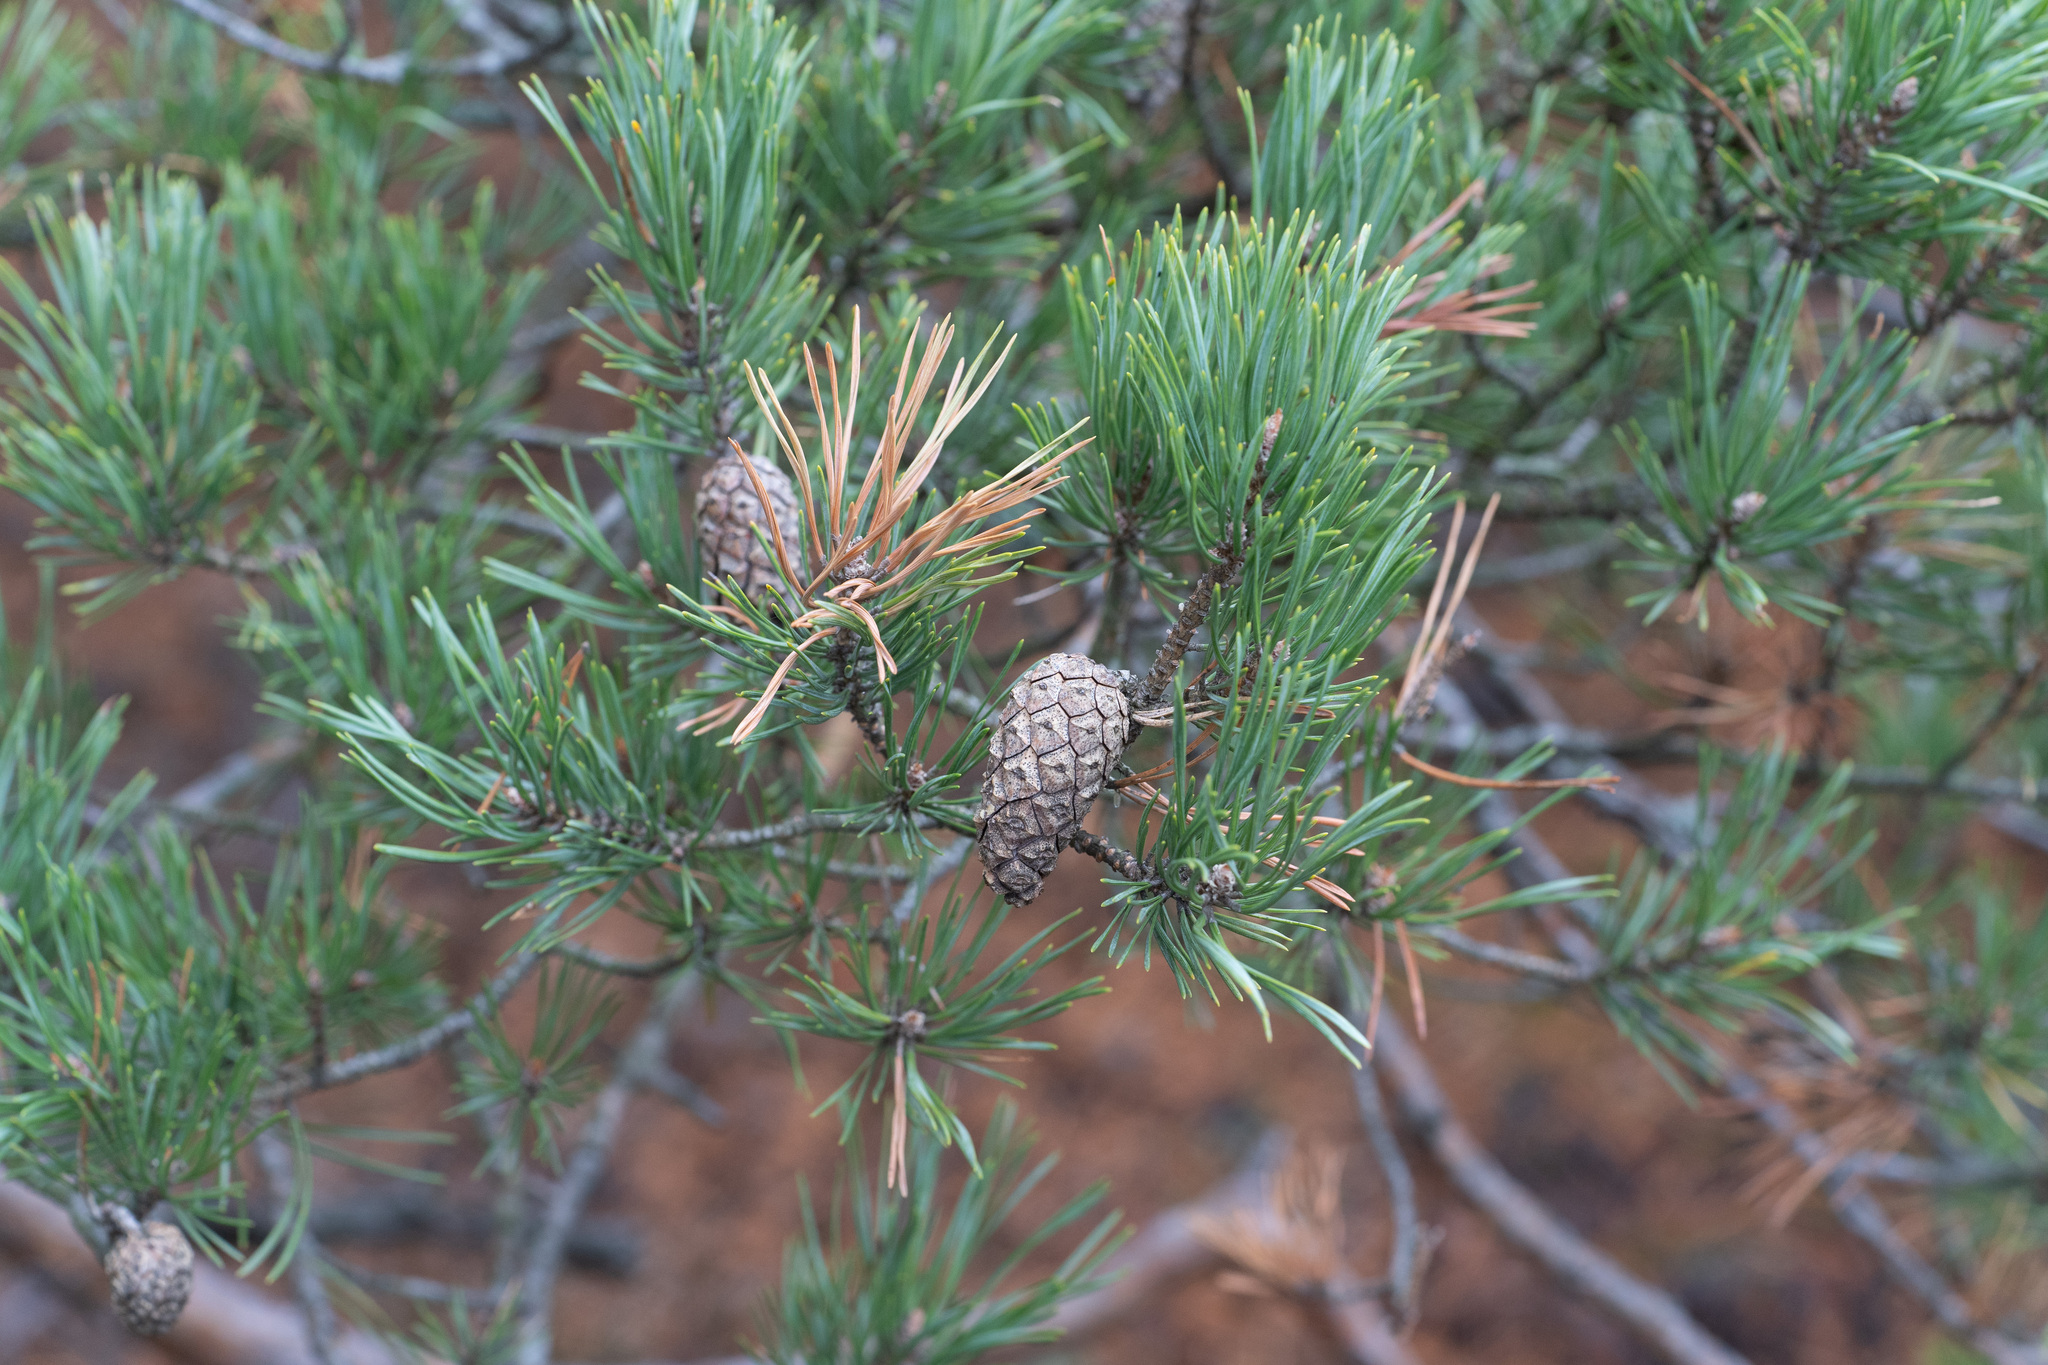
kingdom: Plantae
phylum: Tracheophyta
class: Pinopsida
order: Pinales
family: Pinaceae
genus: Pinus
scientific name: Pinus sylvestris
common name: Scots pine
